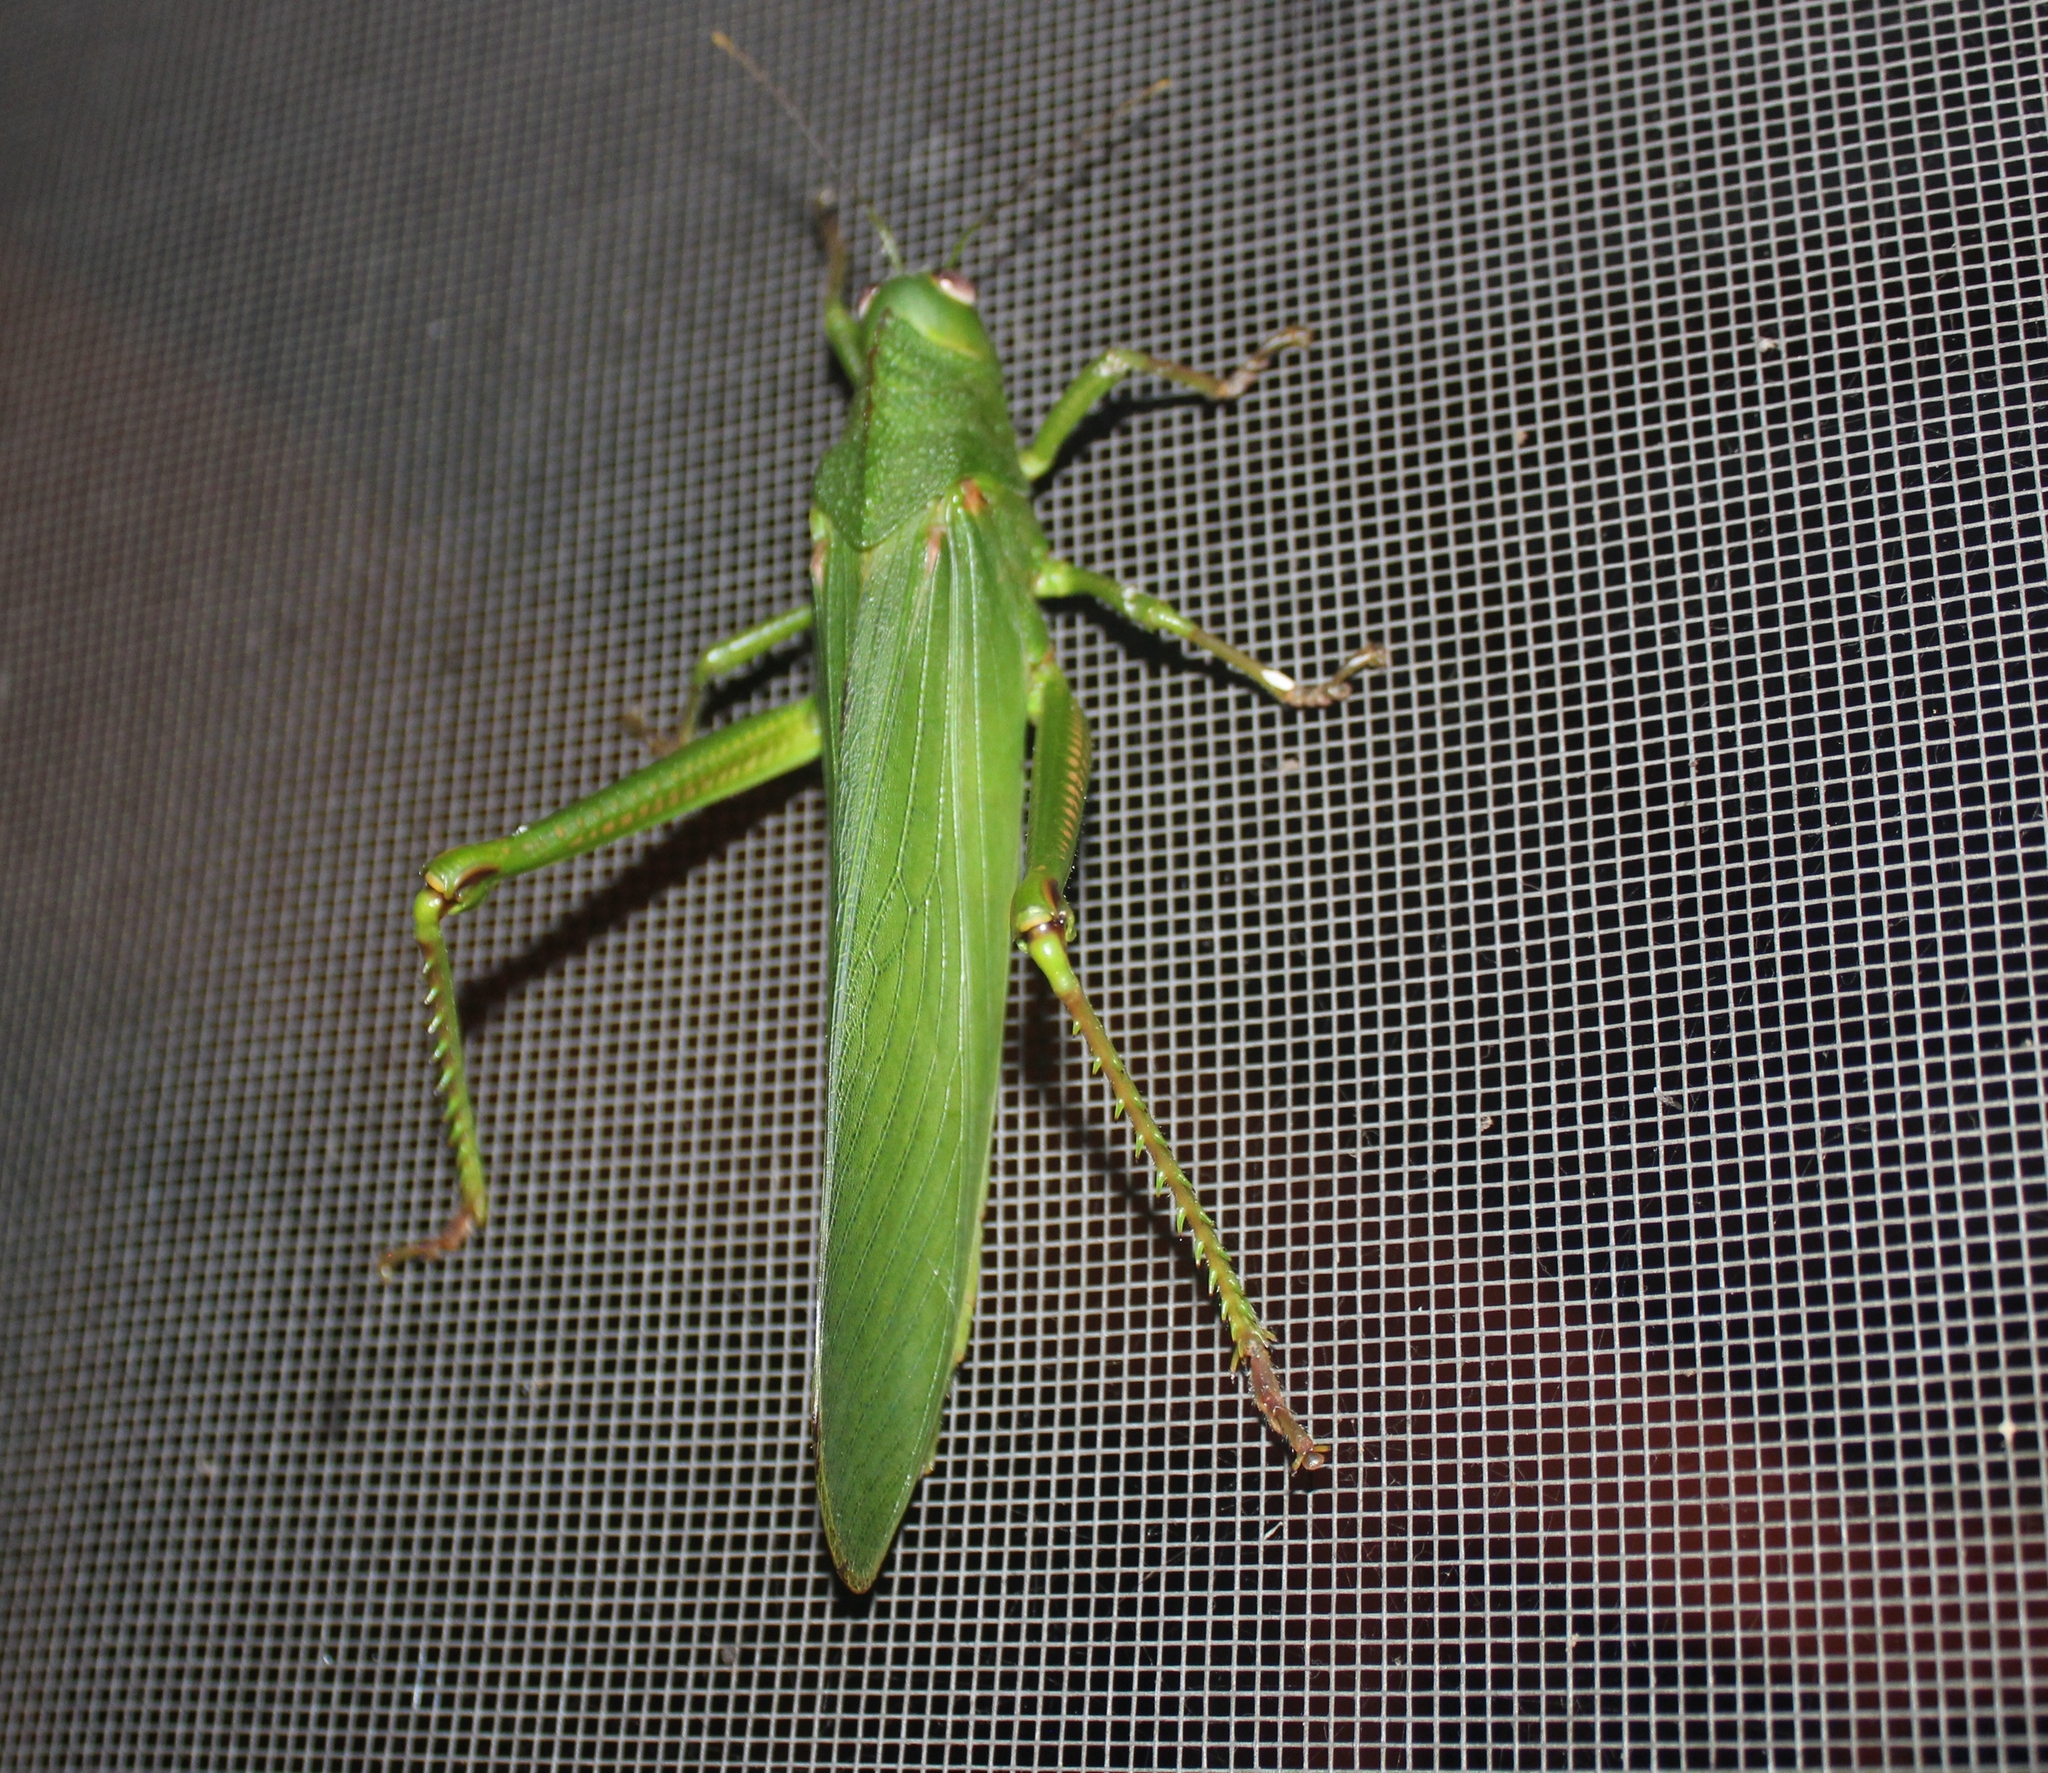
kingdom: Animalia
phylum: Arthropoda
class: Insecta
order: Orthoptera
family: Romaleidae
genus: Titanacris
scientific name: Titanacris velazquezii
